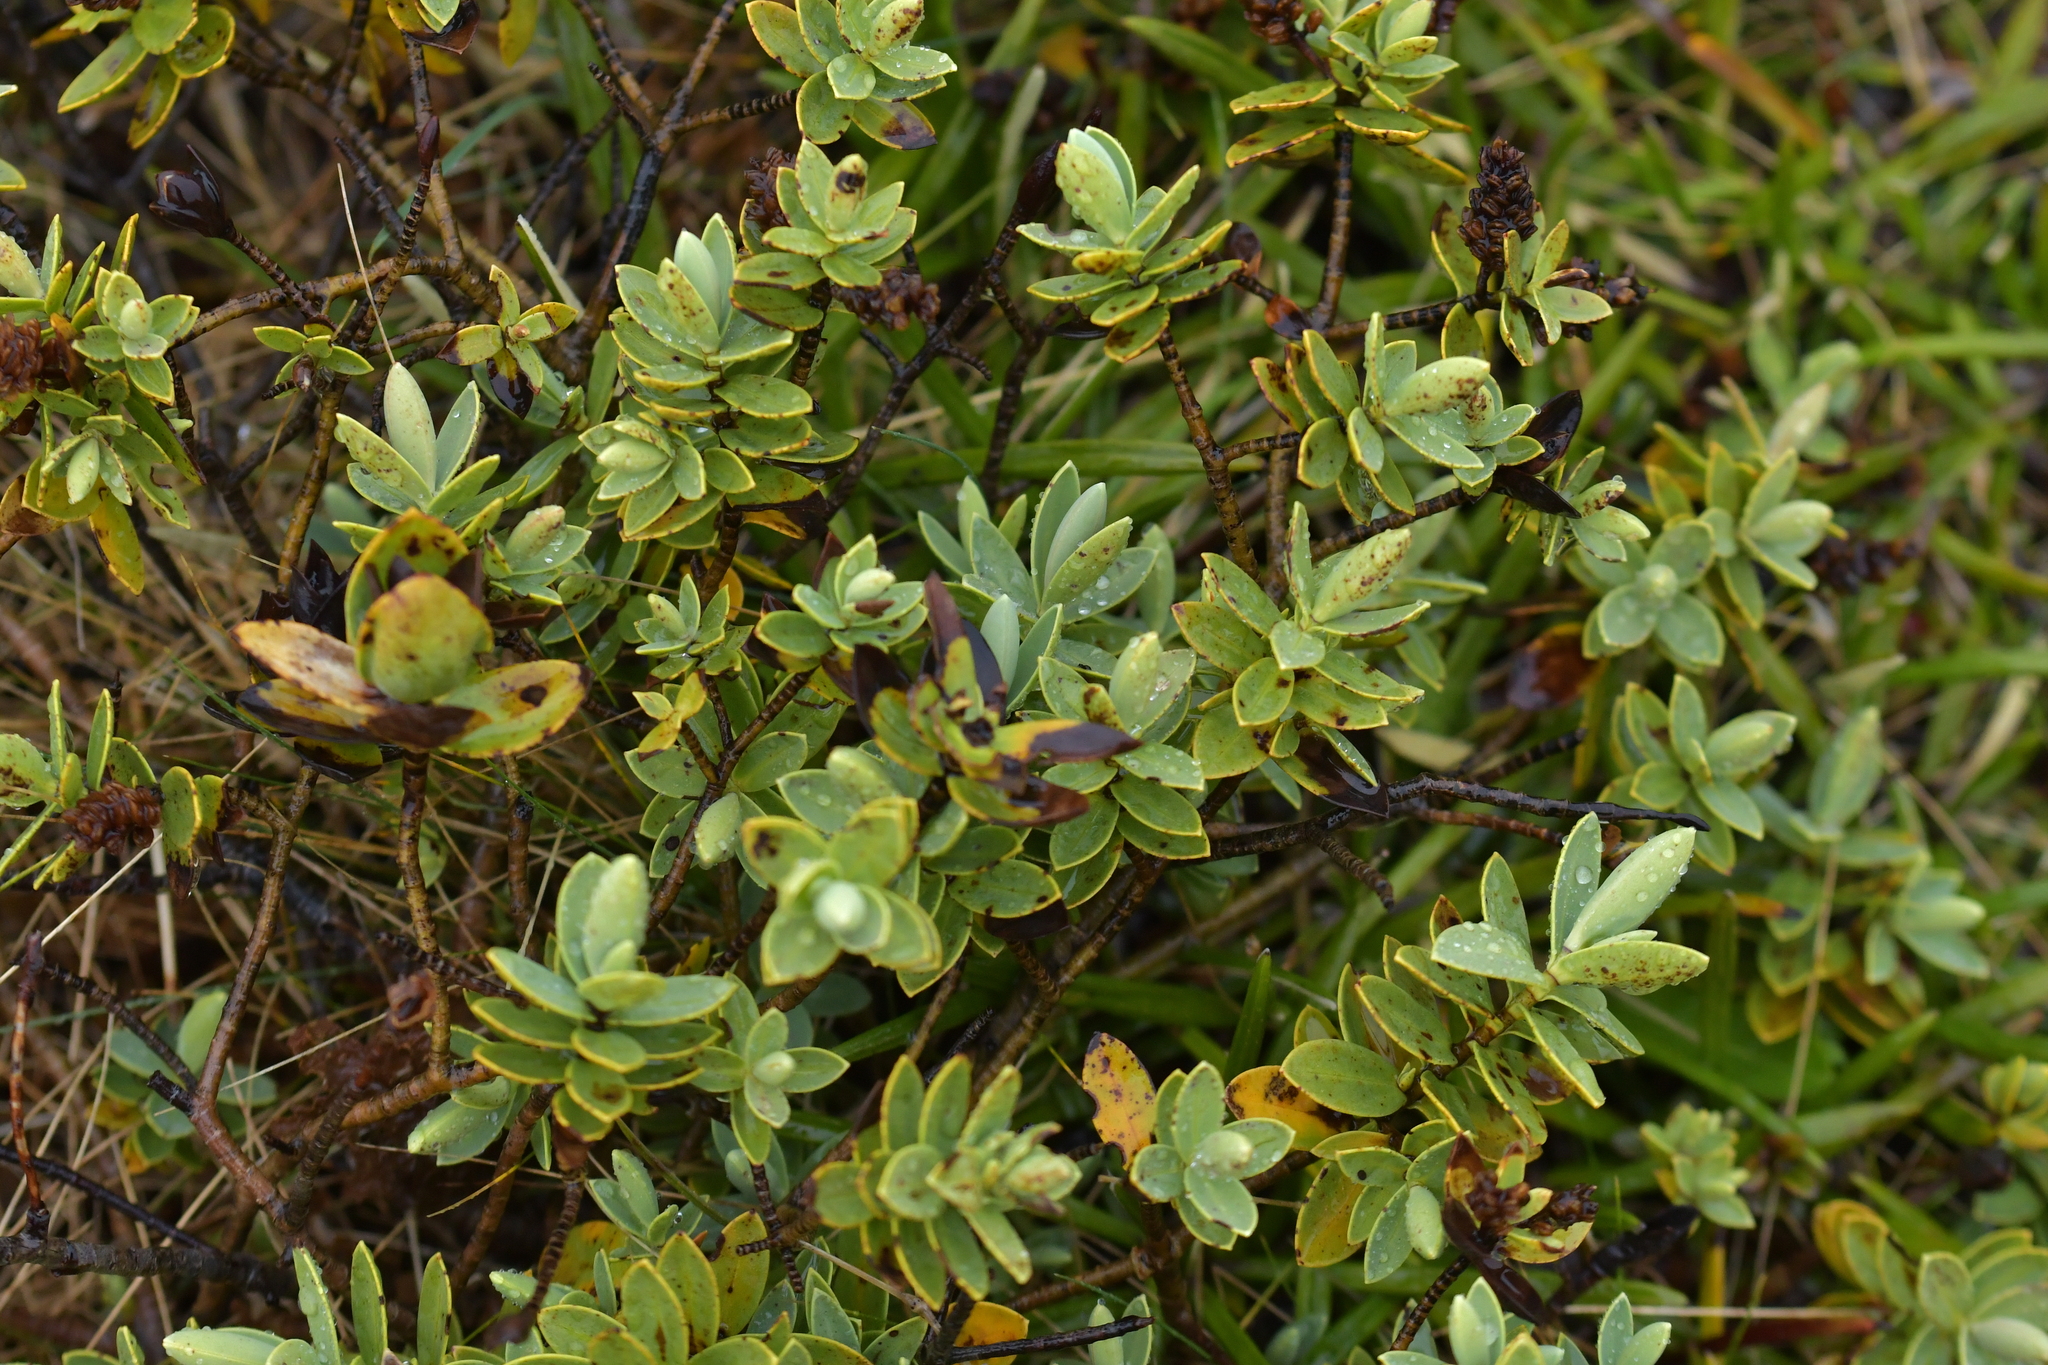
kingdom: Plantae
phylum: Tracheophyta
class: Magnoliopsida
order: Lamiales
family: Plantaginaceae
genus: Veronica
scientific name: Veronica topiaria
